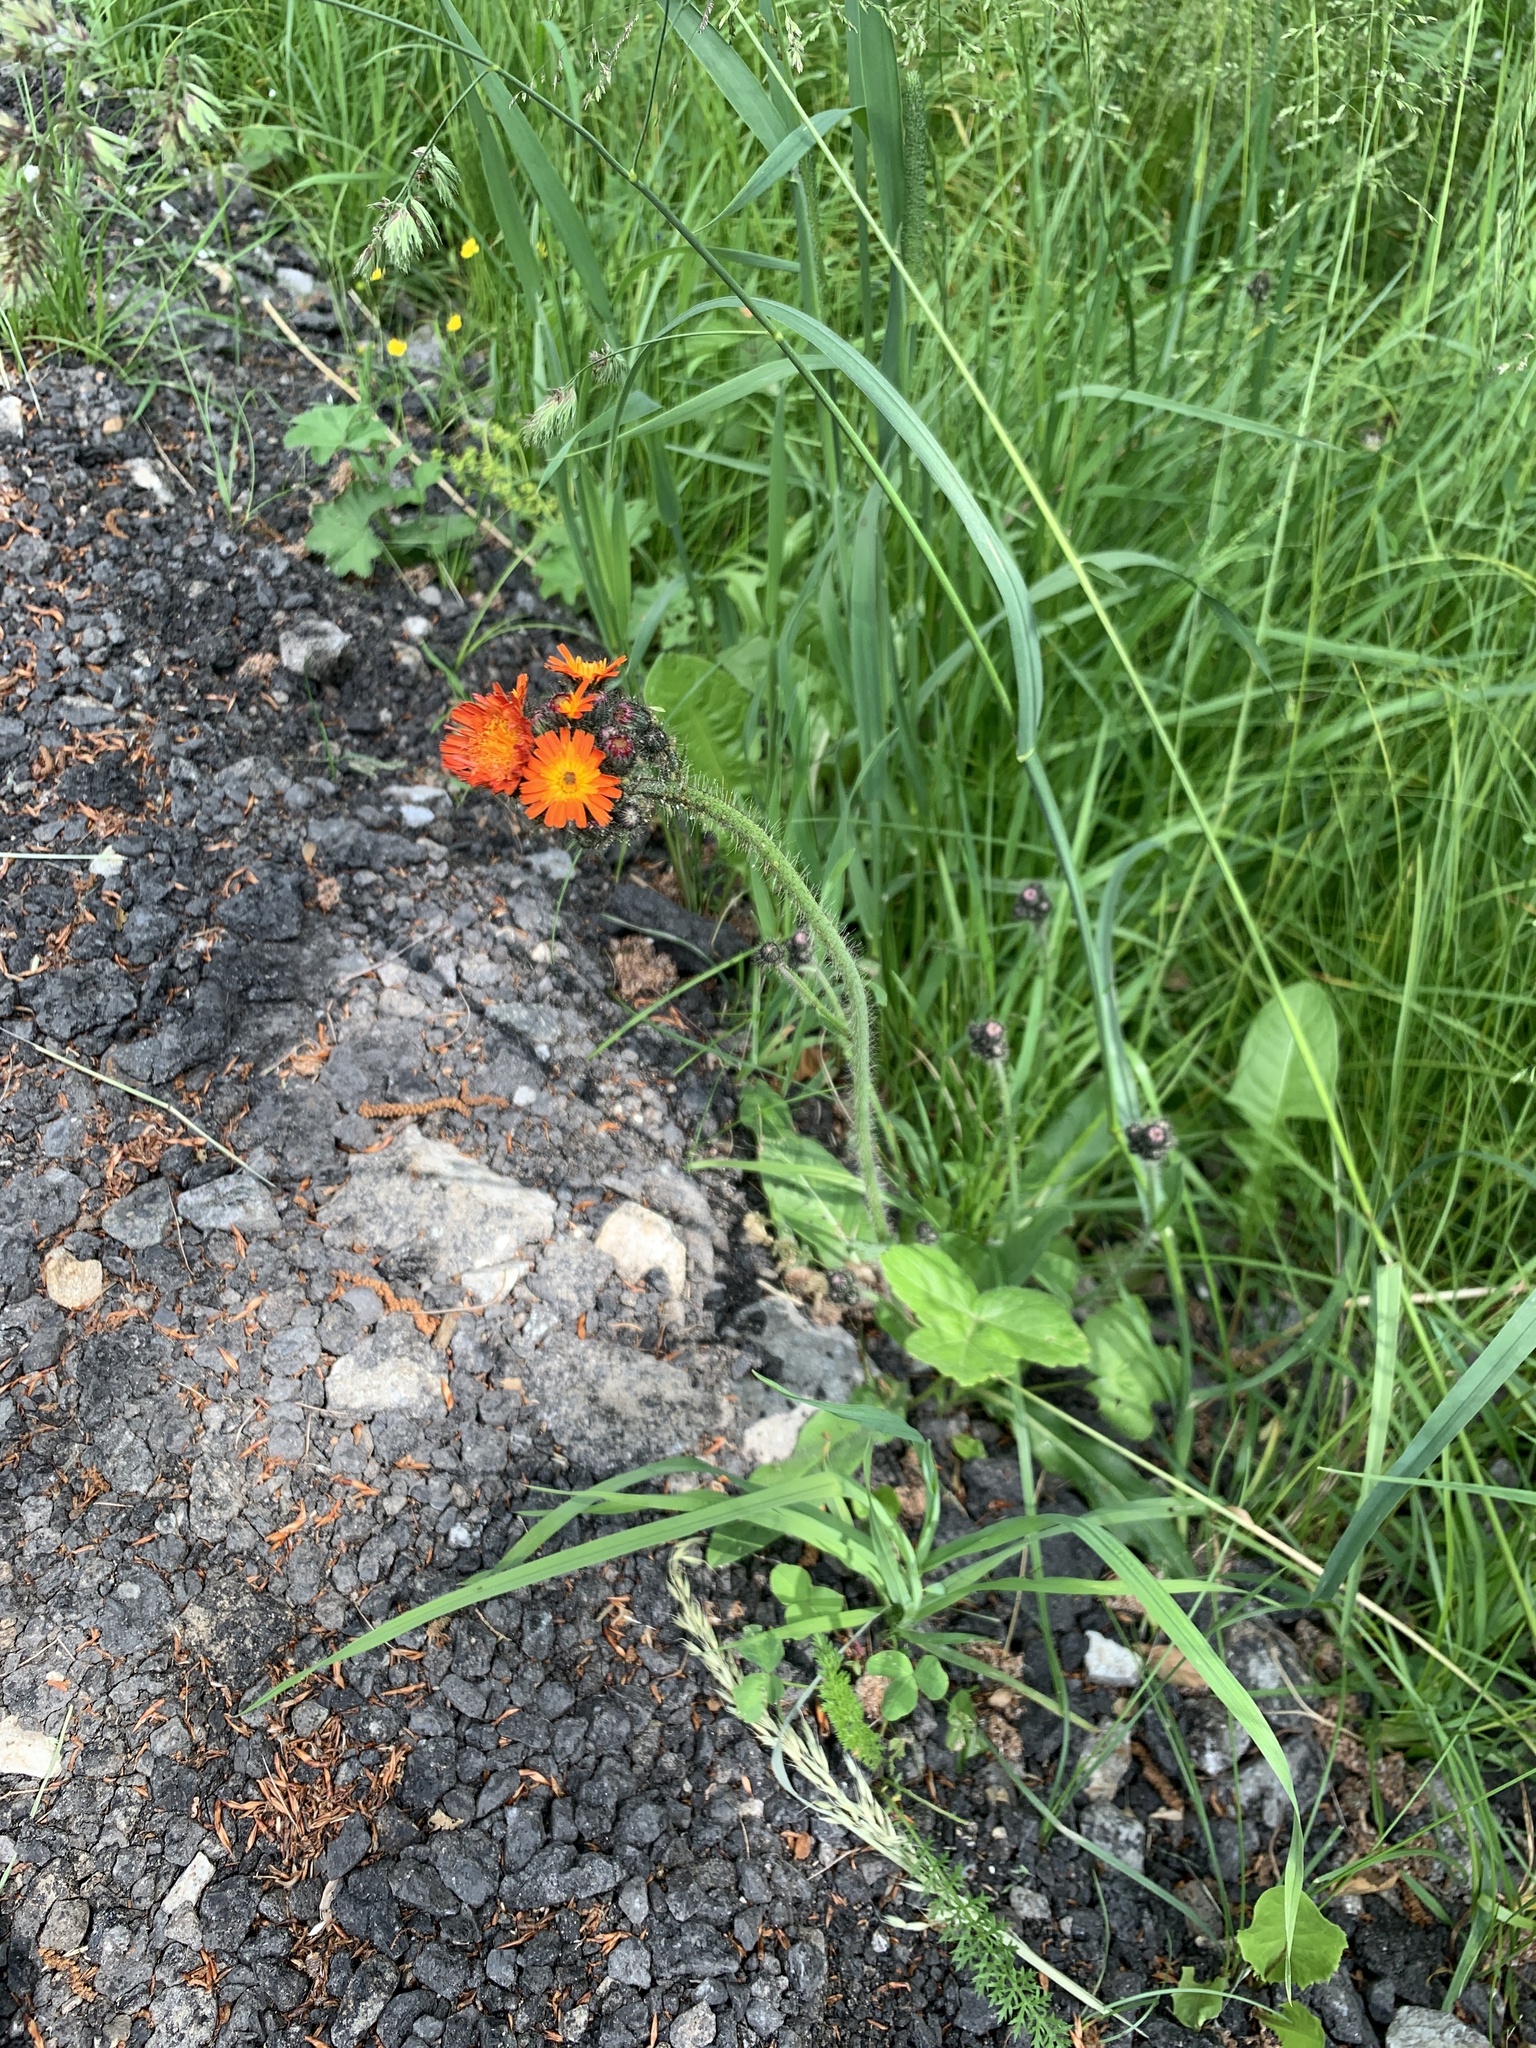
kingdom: Plantae
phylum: Tracheophyta
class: Magnoliopsida
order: Asterales
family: Asteraceae
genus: Pilosella
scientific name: Pilosella aurantiaca
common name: Fox-and-cubs
